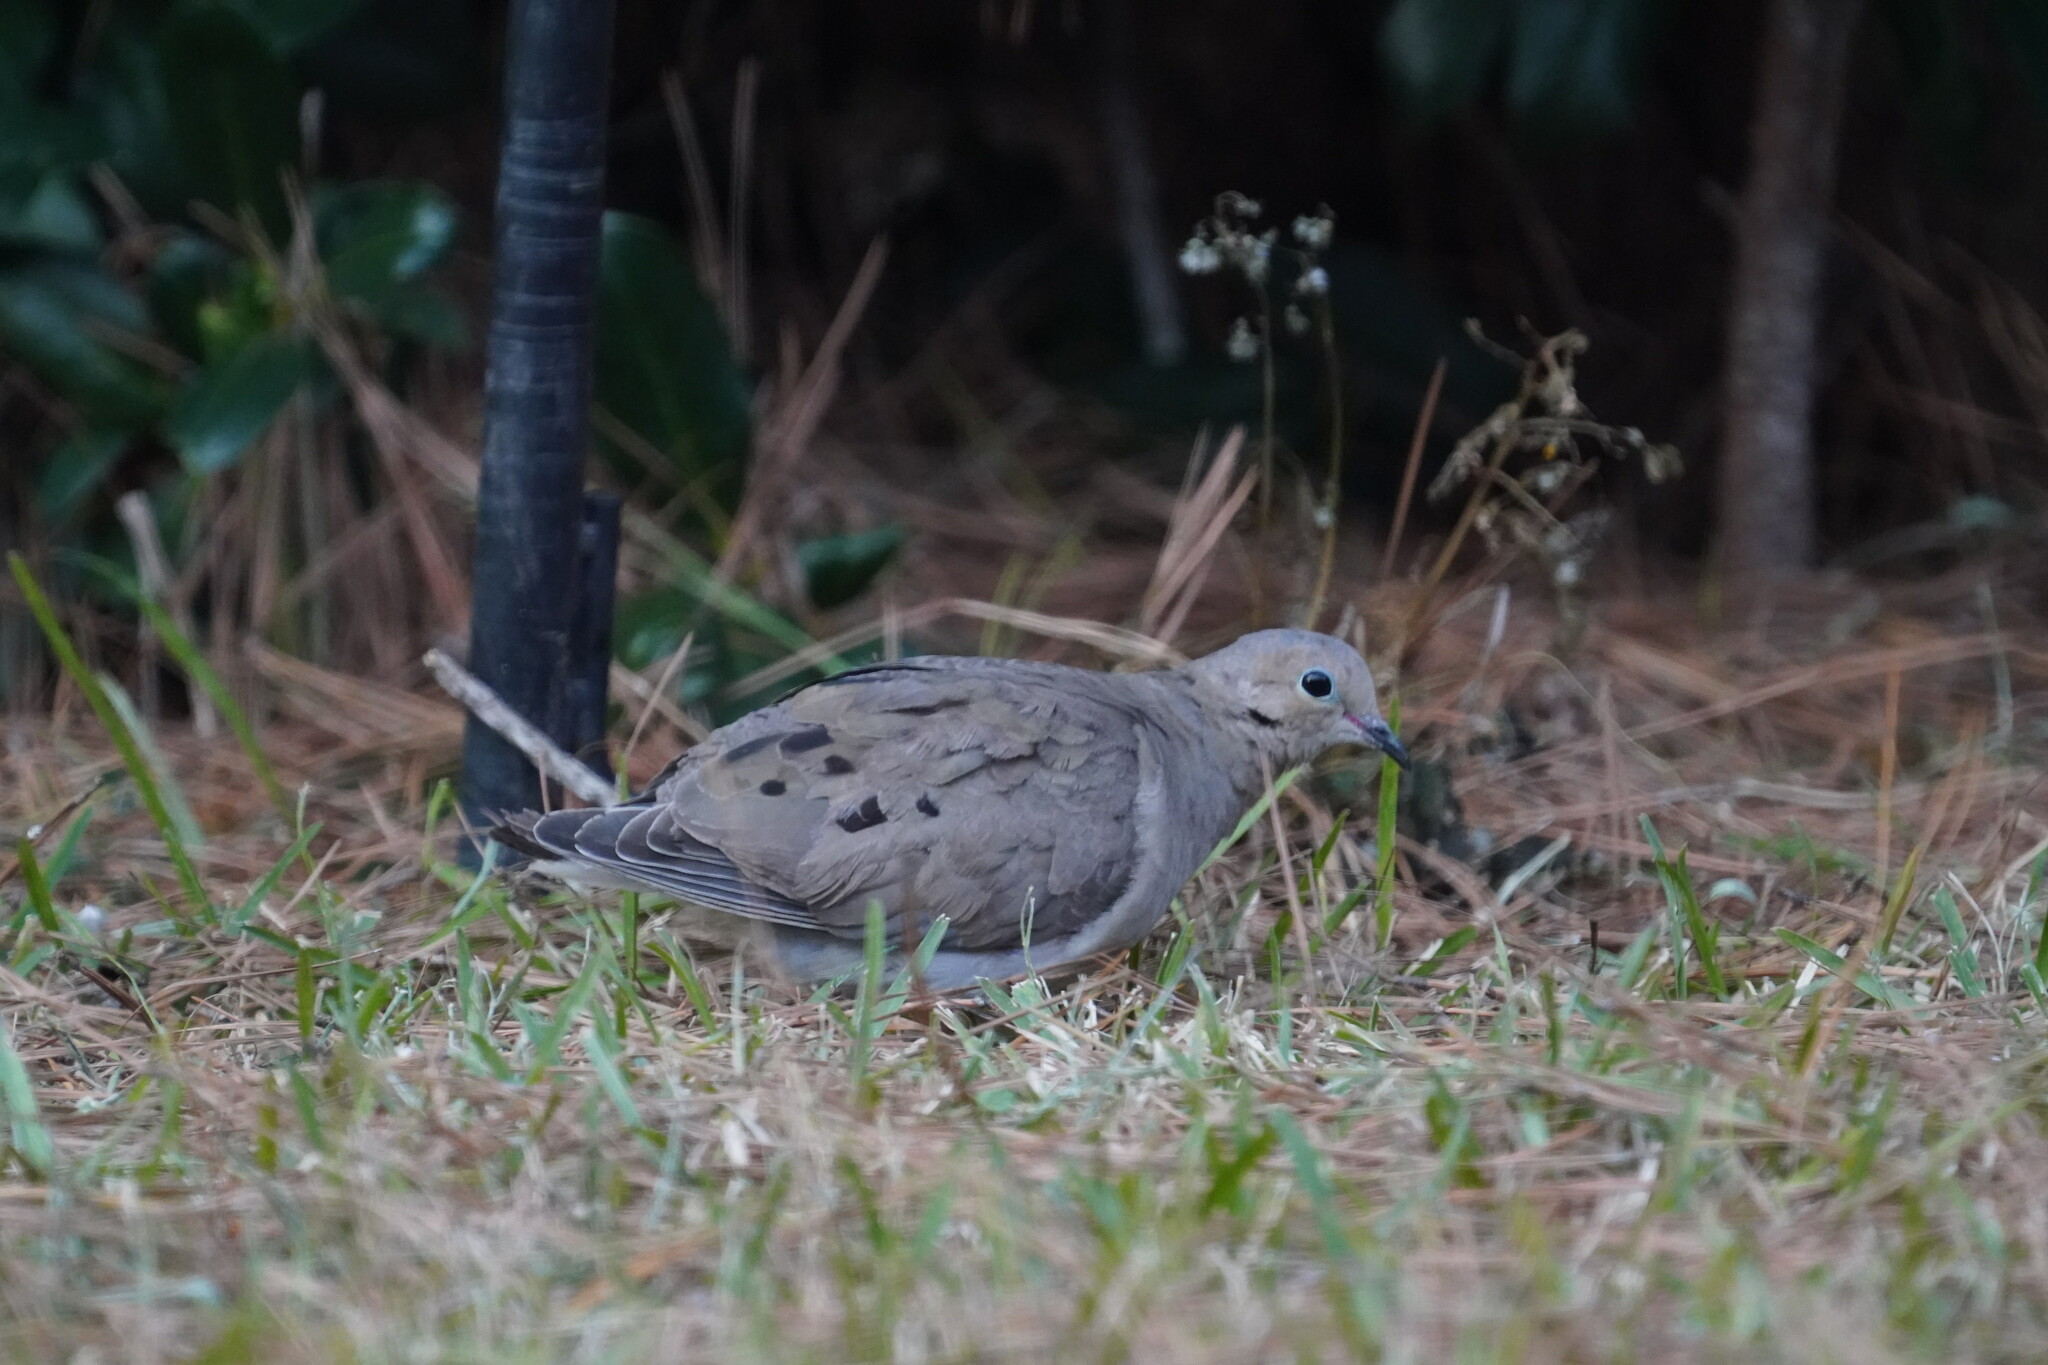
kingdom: Animalia
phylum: Chordata
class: Aves
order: Columbiformes
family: Columbidae
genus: Zenaida
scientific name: Zenaida macroura
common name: Mourning dove
